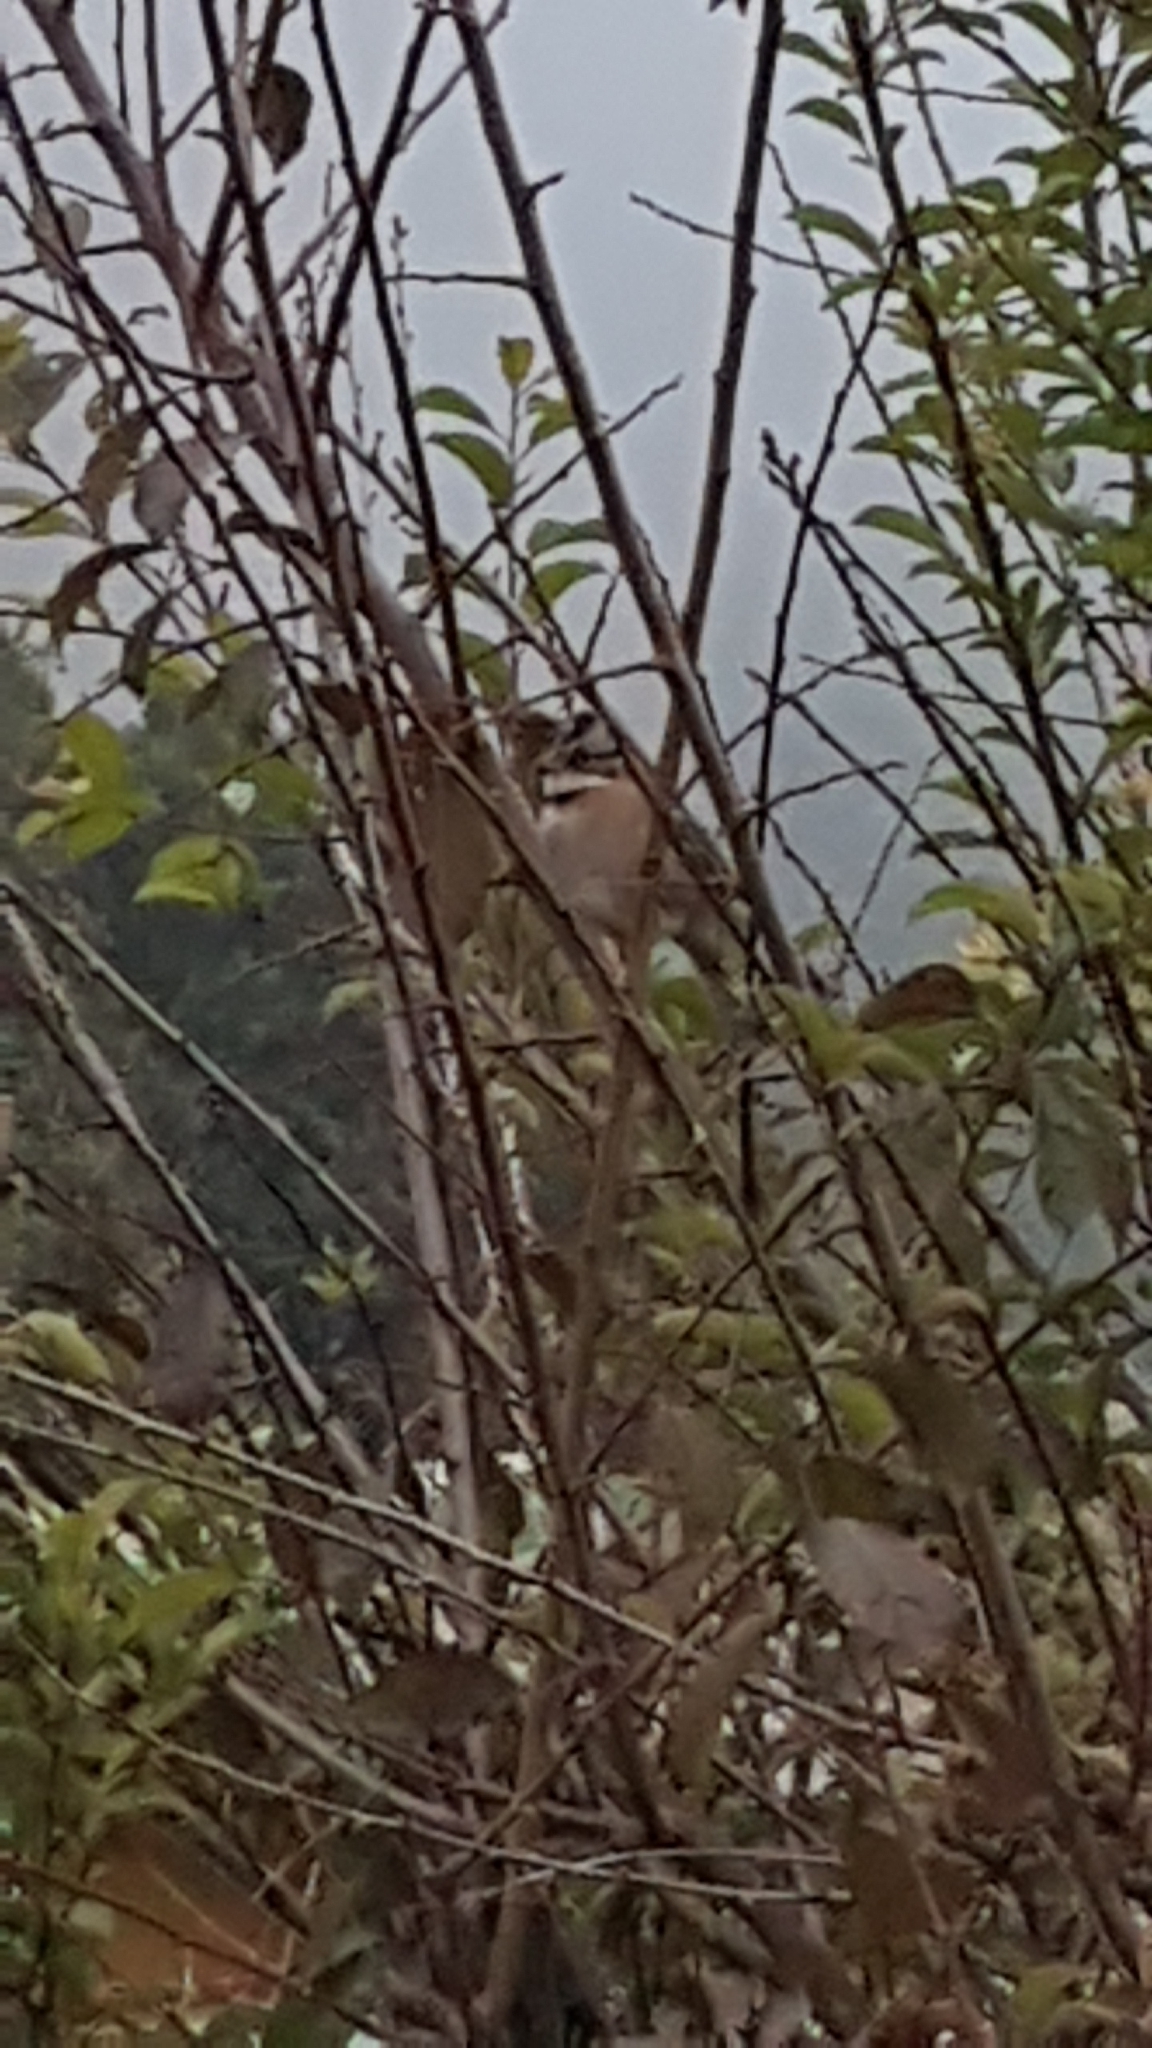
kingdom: Animalia
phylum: Chordata
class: Aves
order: Passeriformes
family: Passerellidae
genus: Zonotrichia
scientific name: Zonotrichia capensis
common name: Rufous-collared sparrow
